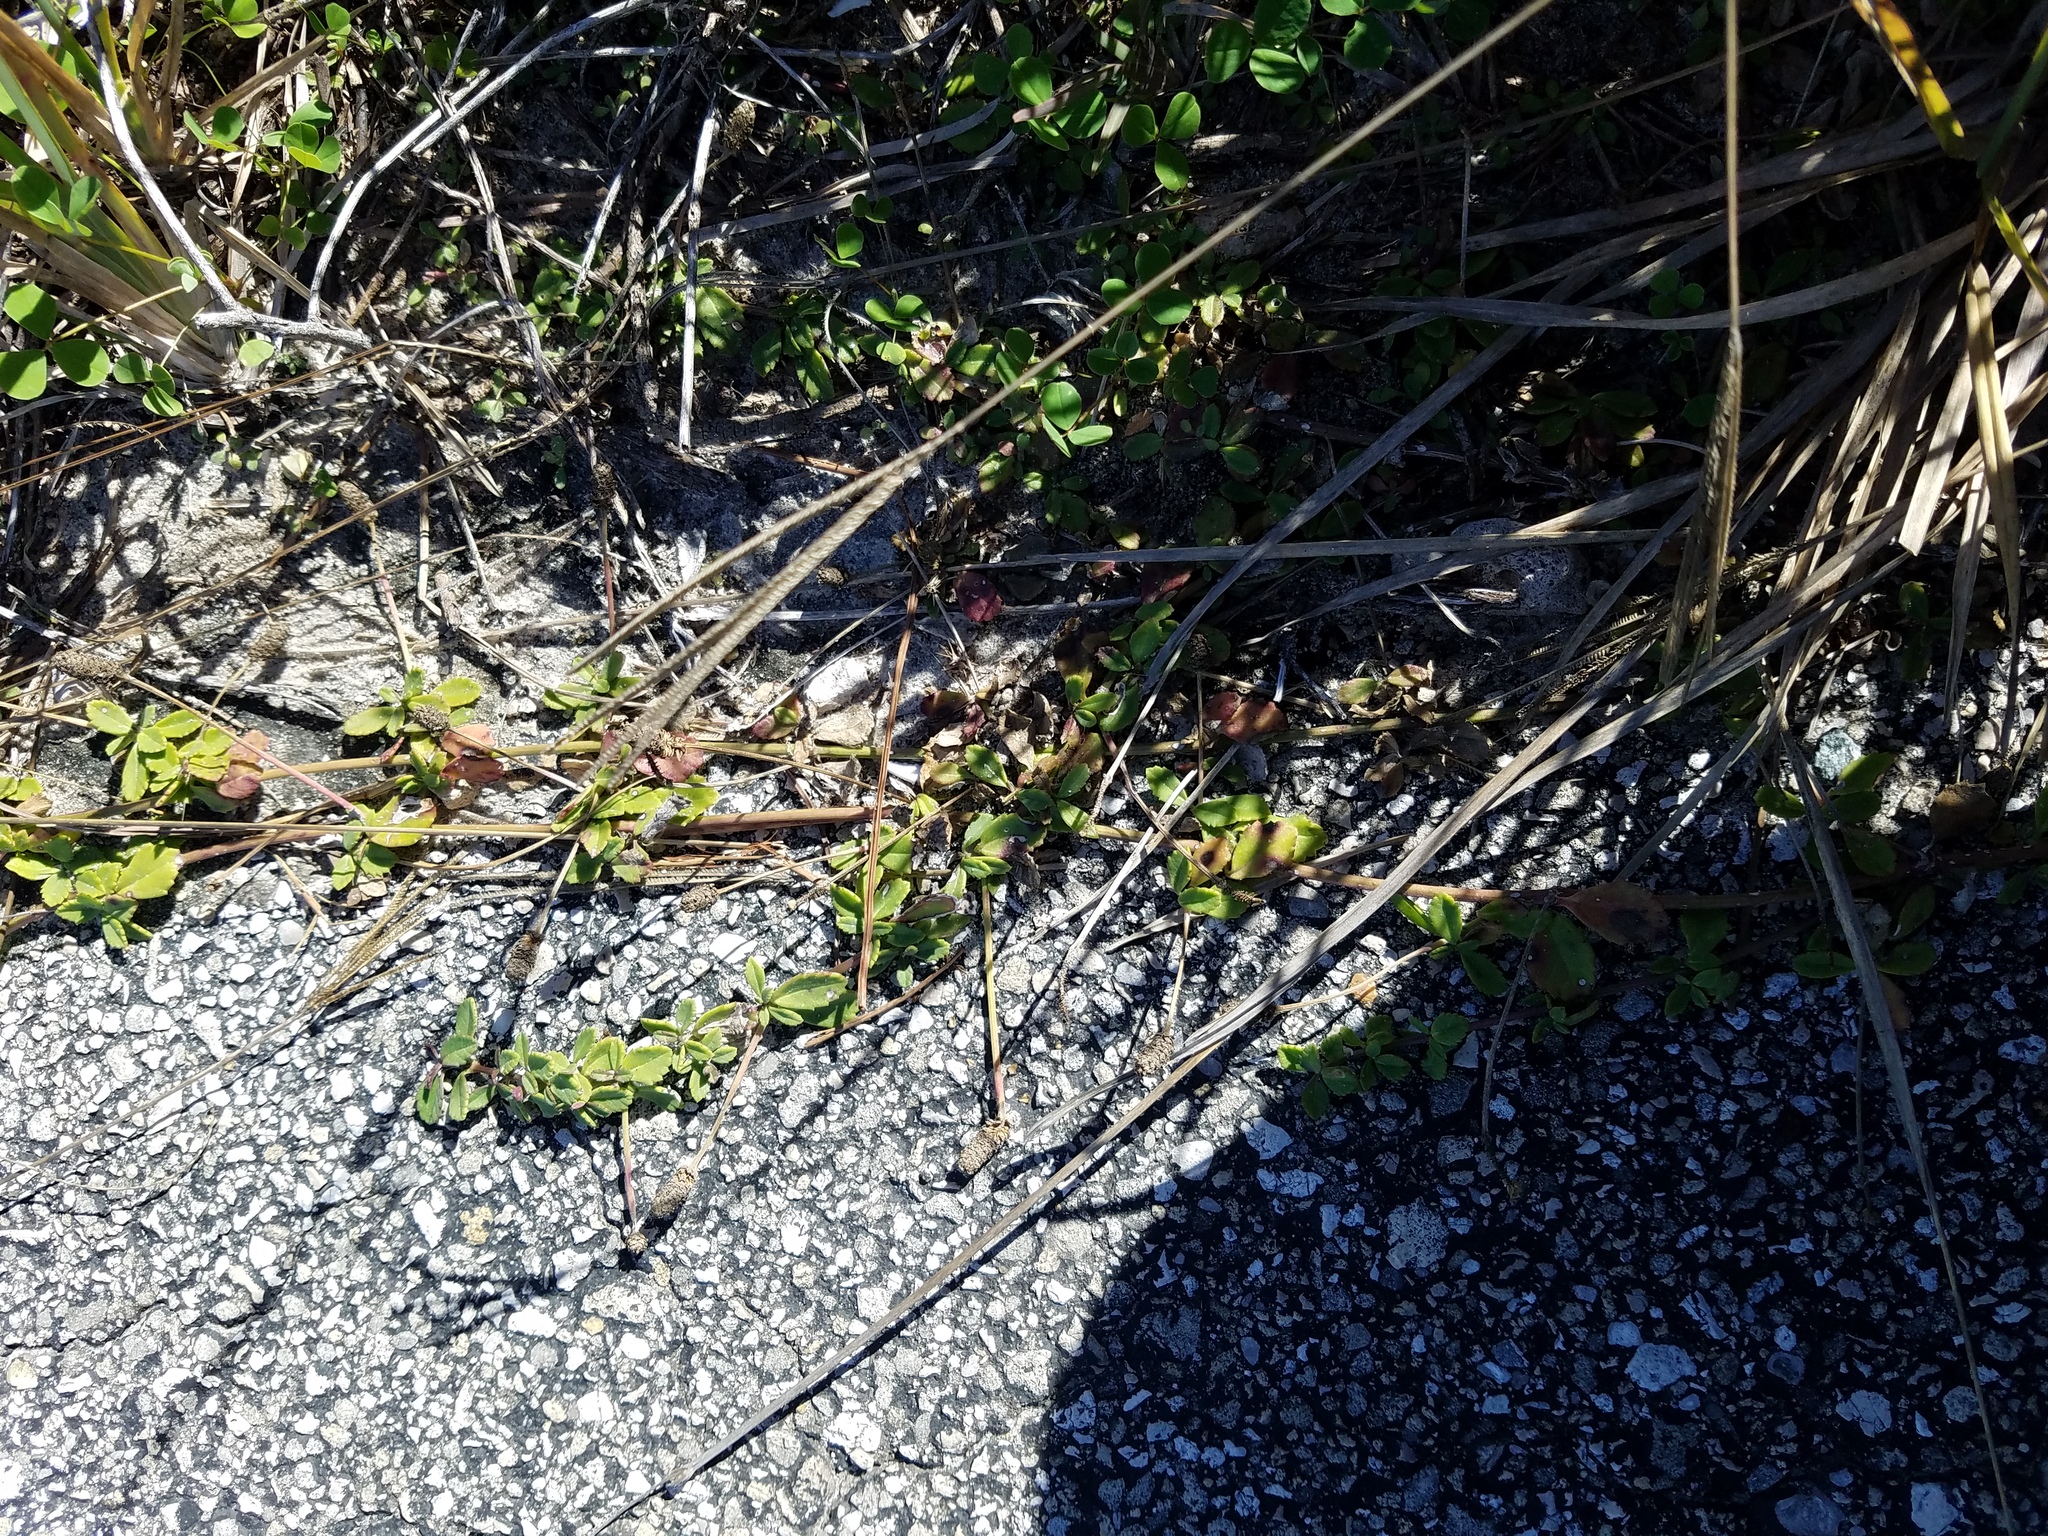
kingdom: Plantae
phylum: Tracheophyta
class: Magnoliopsida
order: Lamiales
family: Verbenaceae
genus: Phyla
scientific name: Phyla nodiflora
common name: Frogfruit
